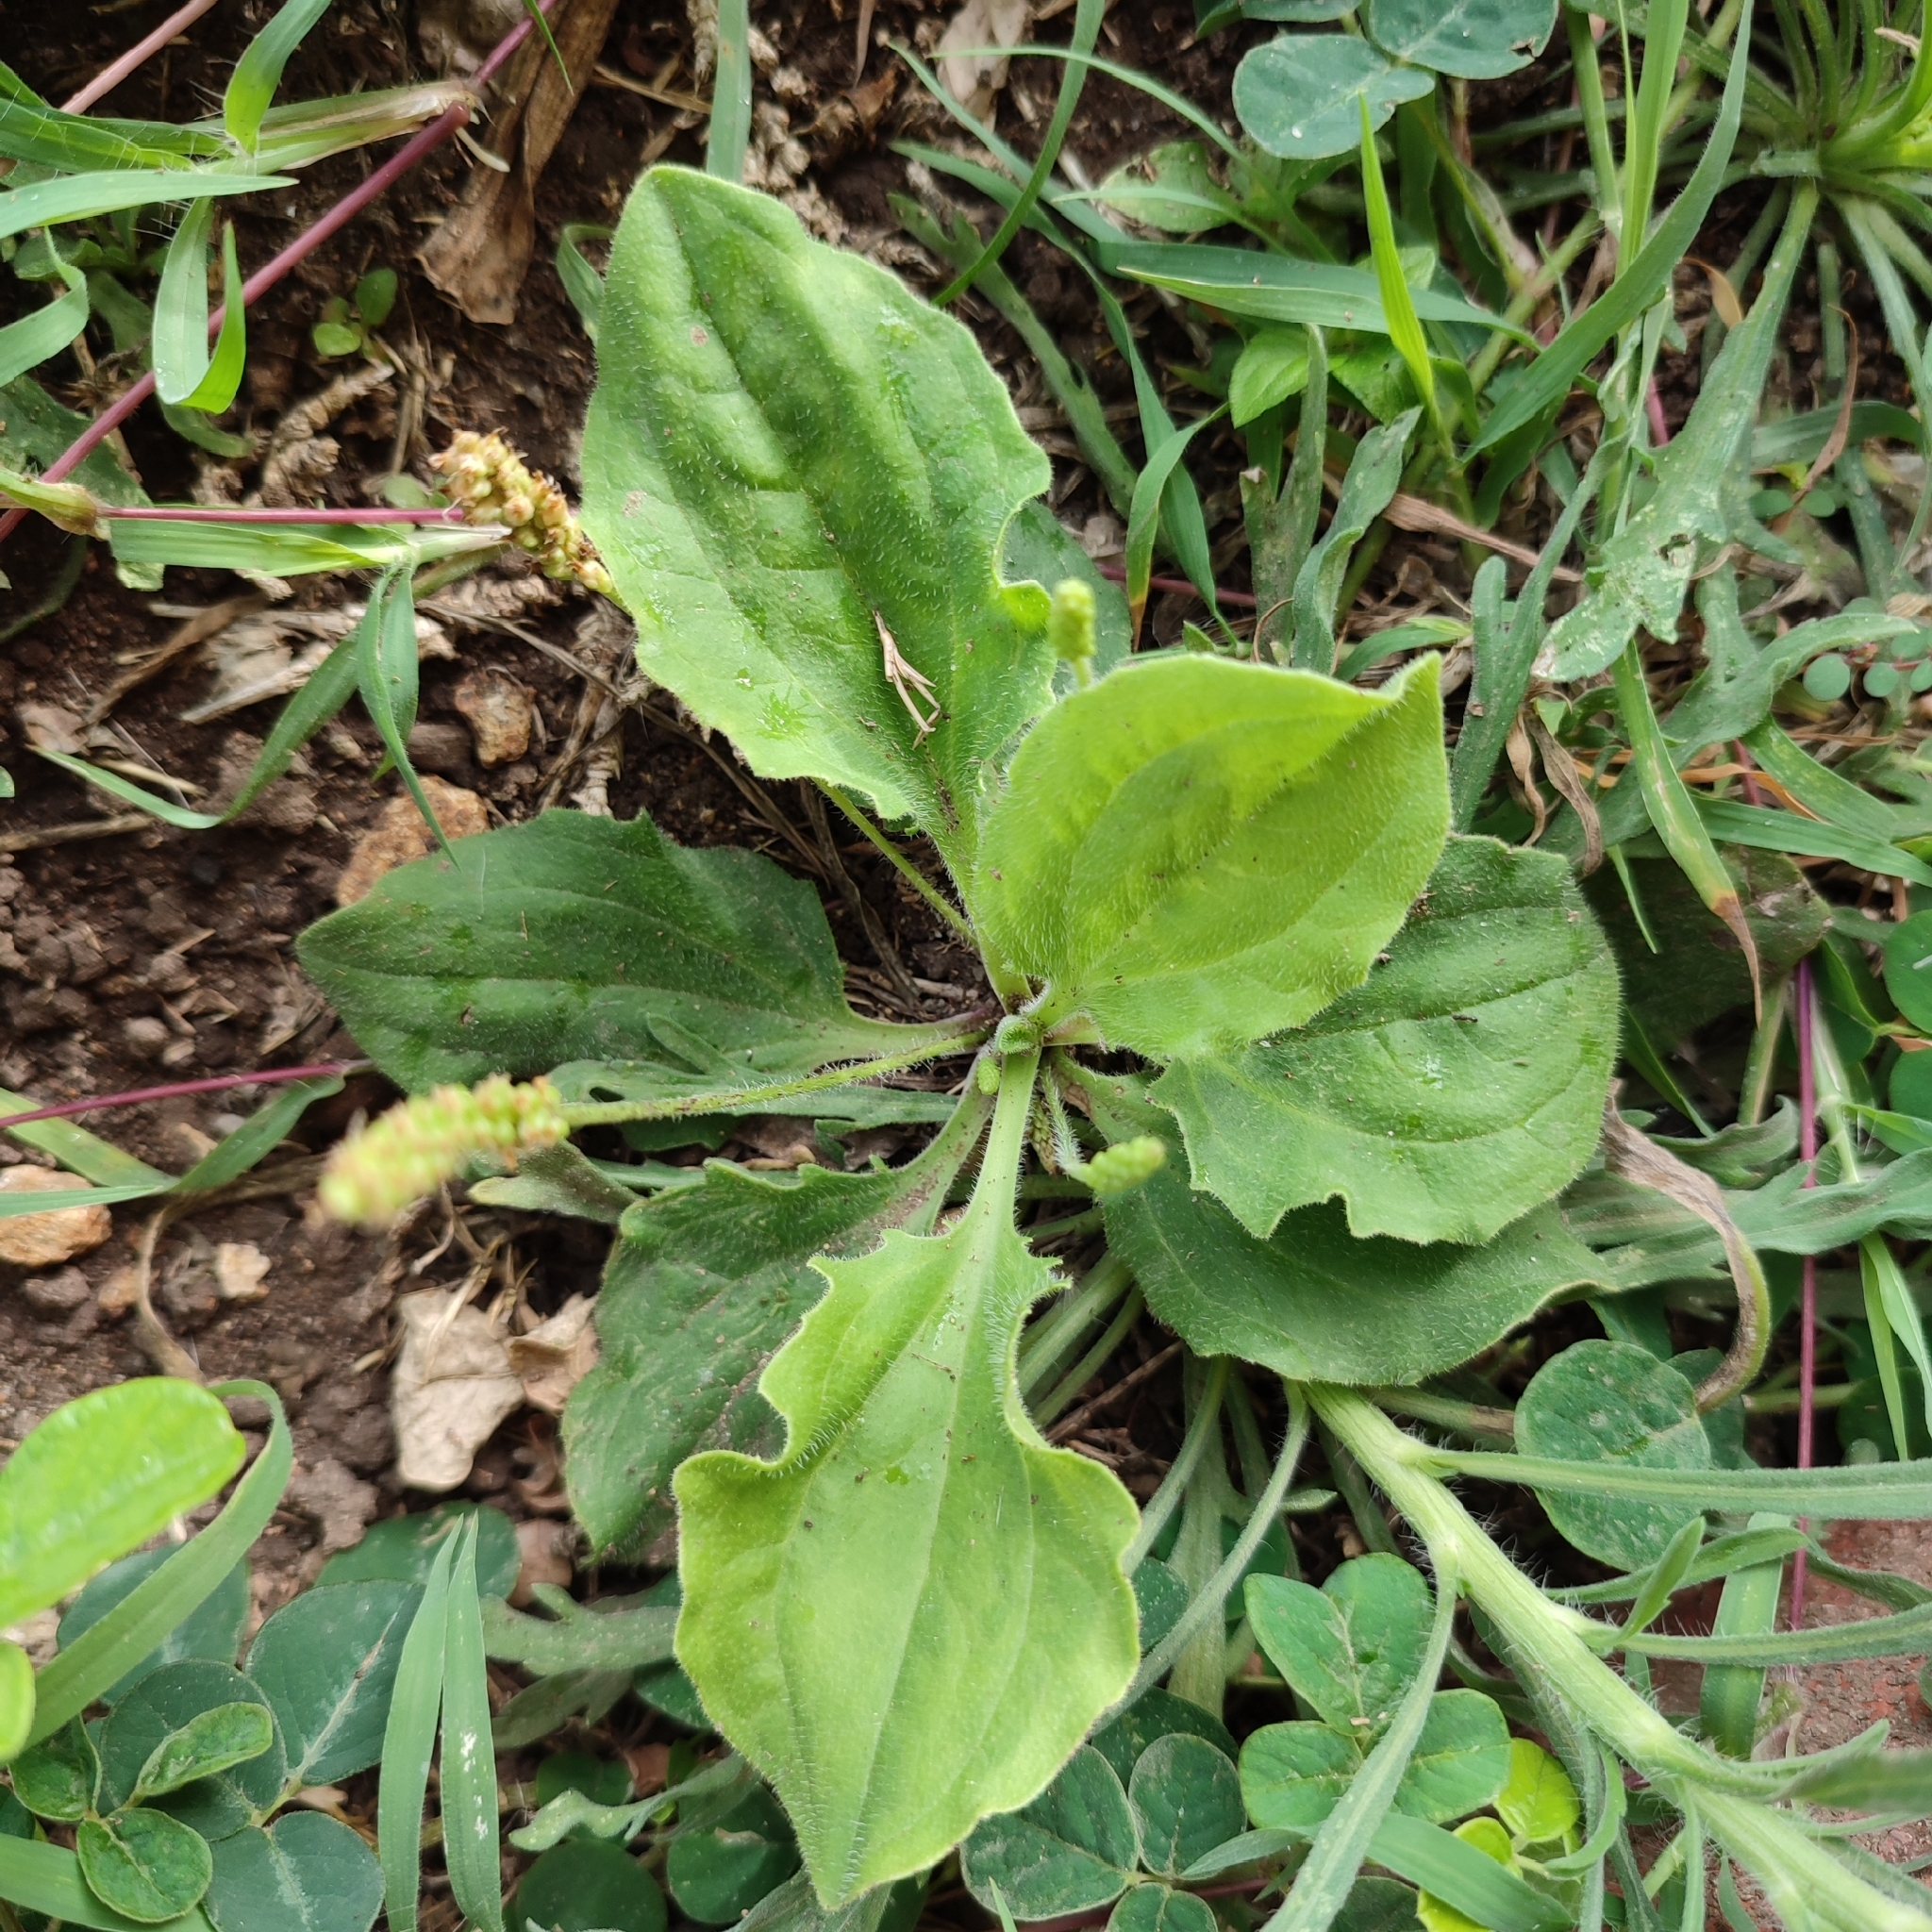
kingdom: Plantae
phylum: Tracheophyta
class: Magnoliopsida
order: Lamiales
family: Plantaginaceae
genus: Plantago
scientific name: Plantago major
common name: Common plantain
